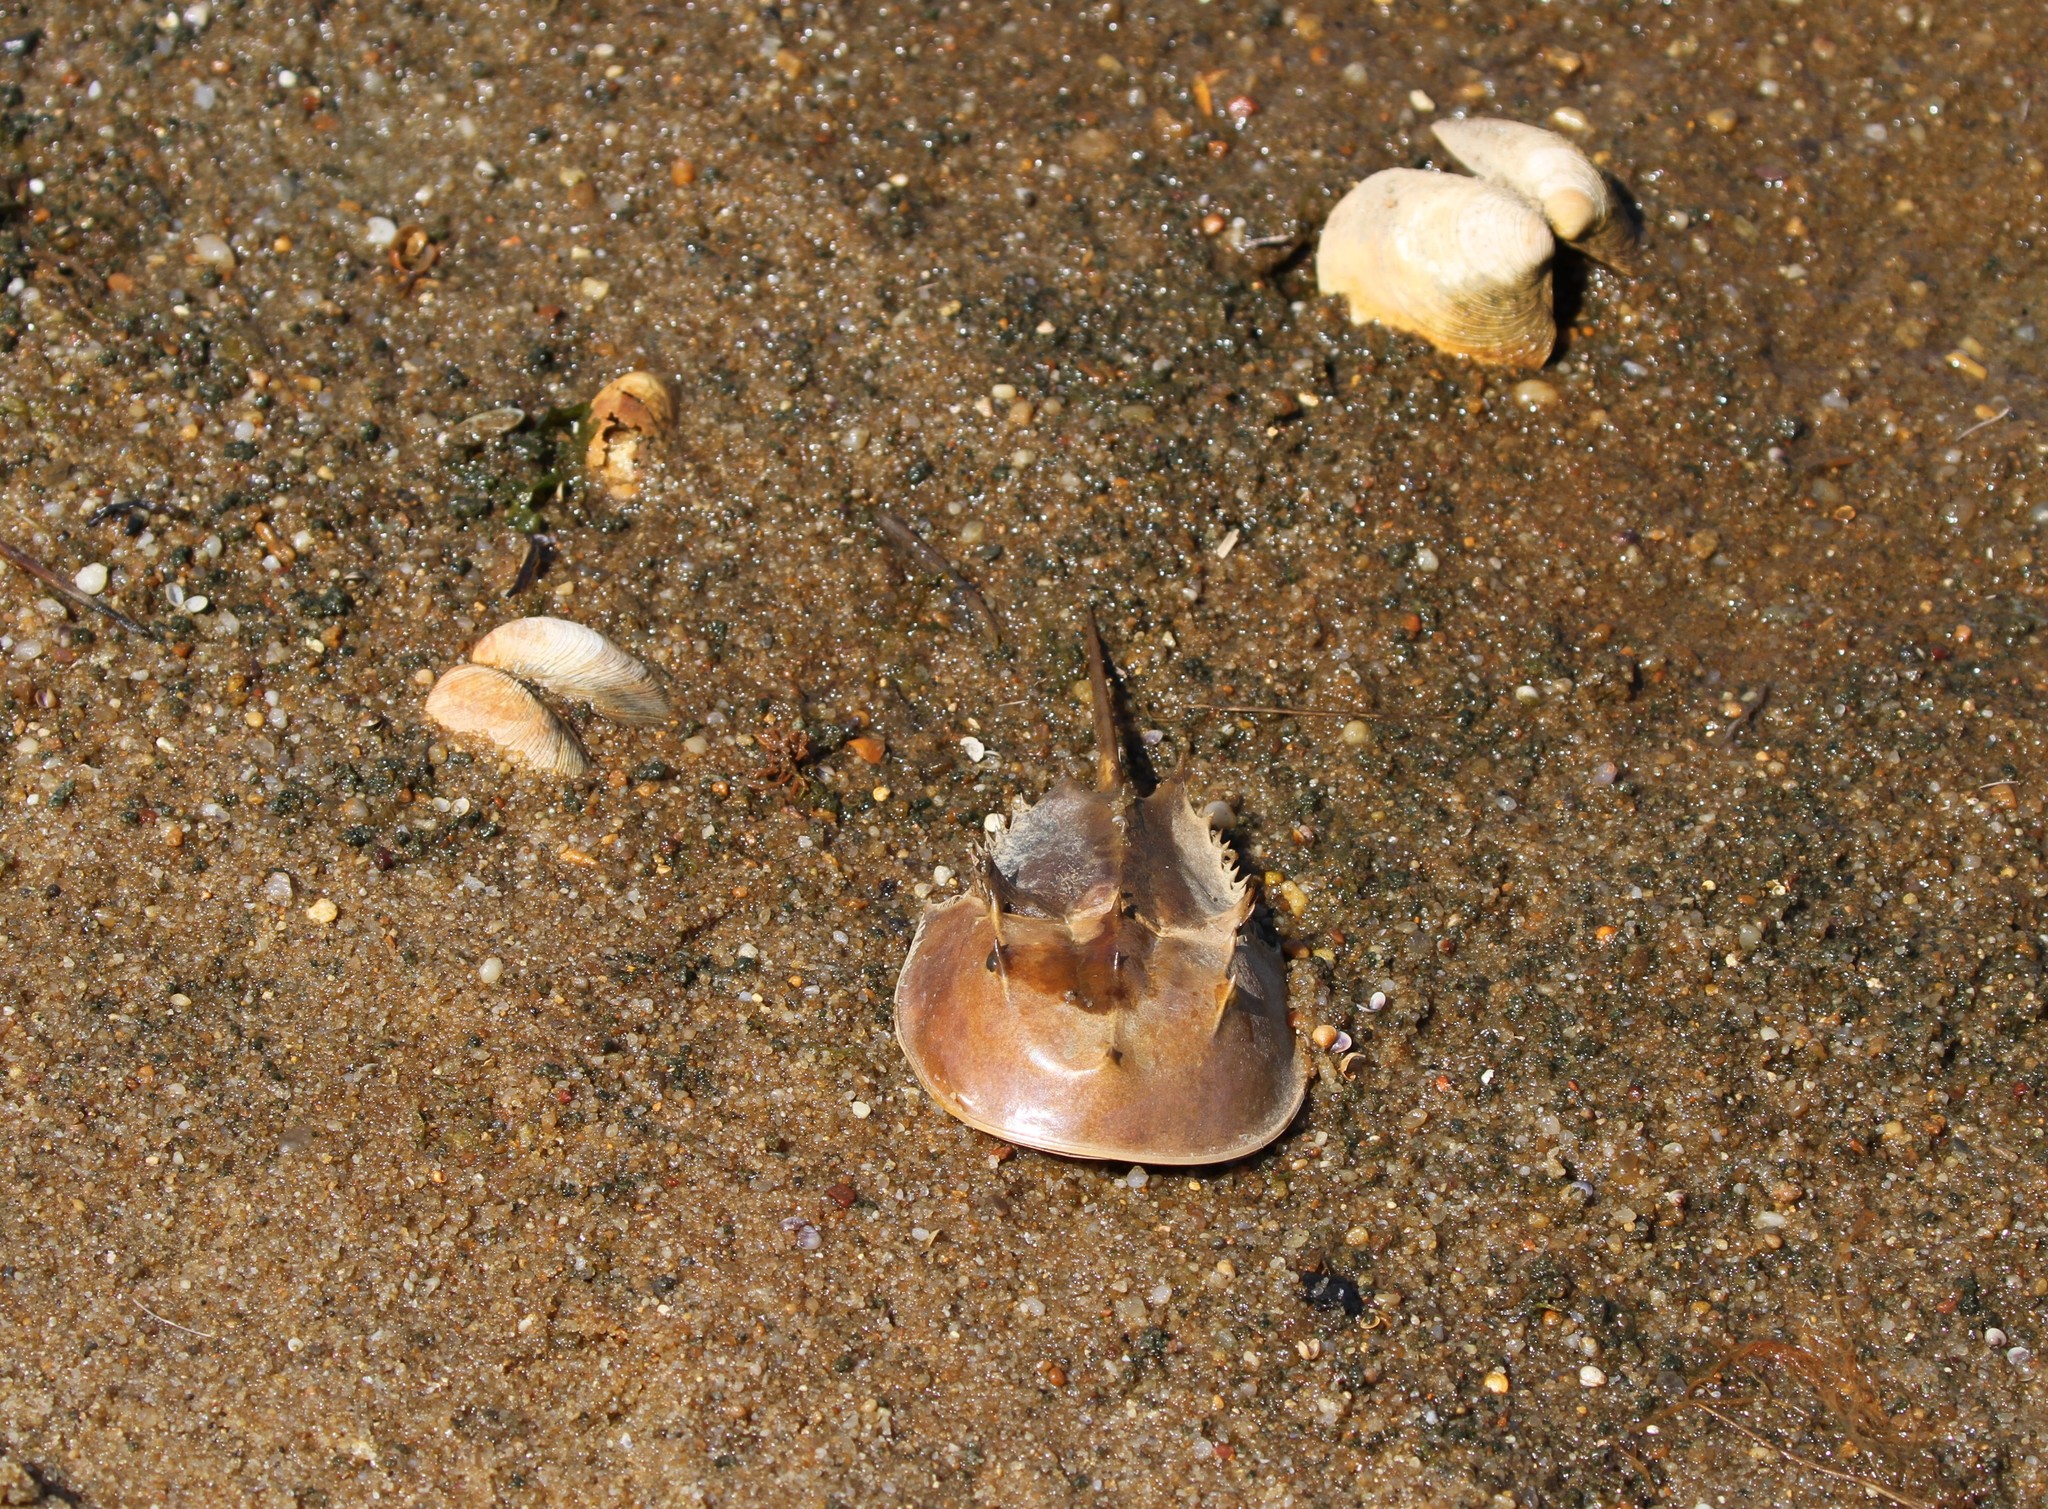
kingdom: Animalia
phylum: Arthropoda
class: Merostomata
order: Xiphosurida
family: Limulidae
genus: Limulus
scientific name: Limulus polyphemus
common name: Horseshoe crab
